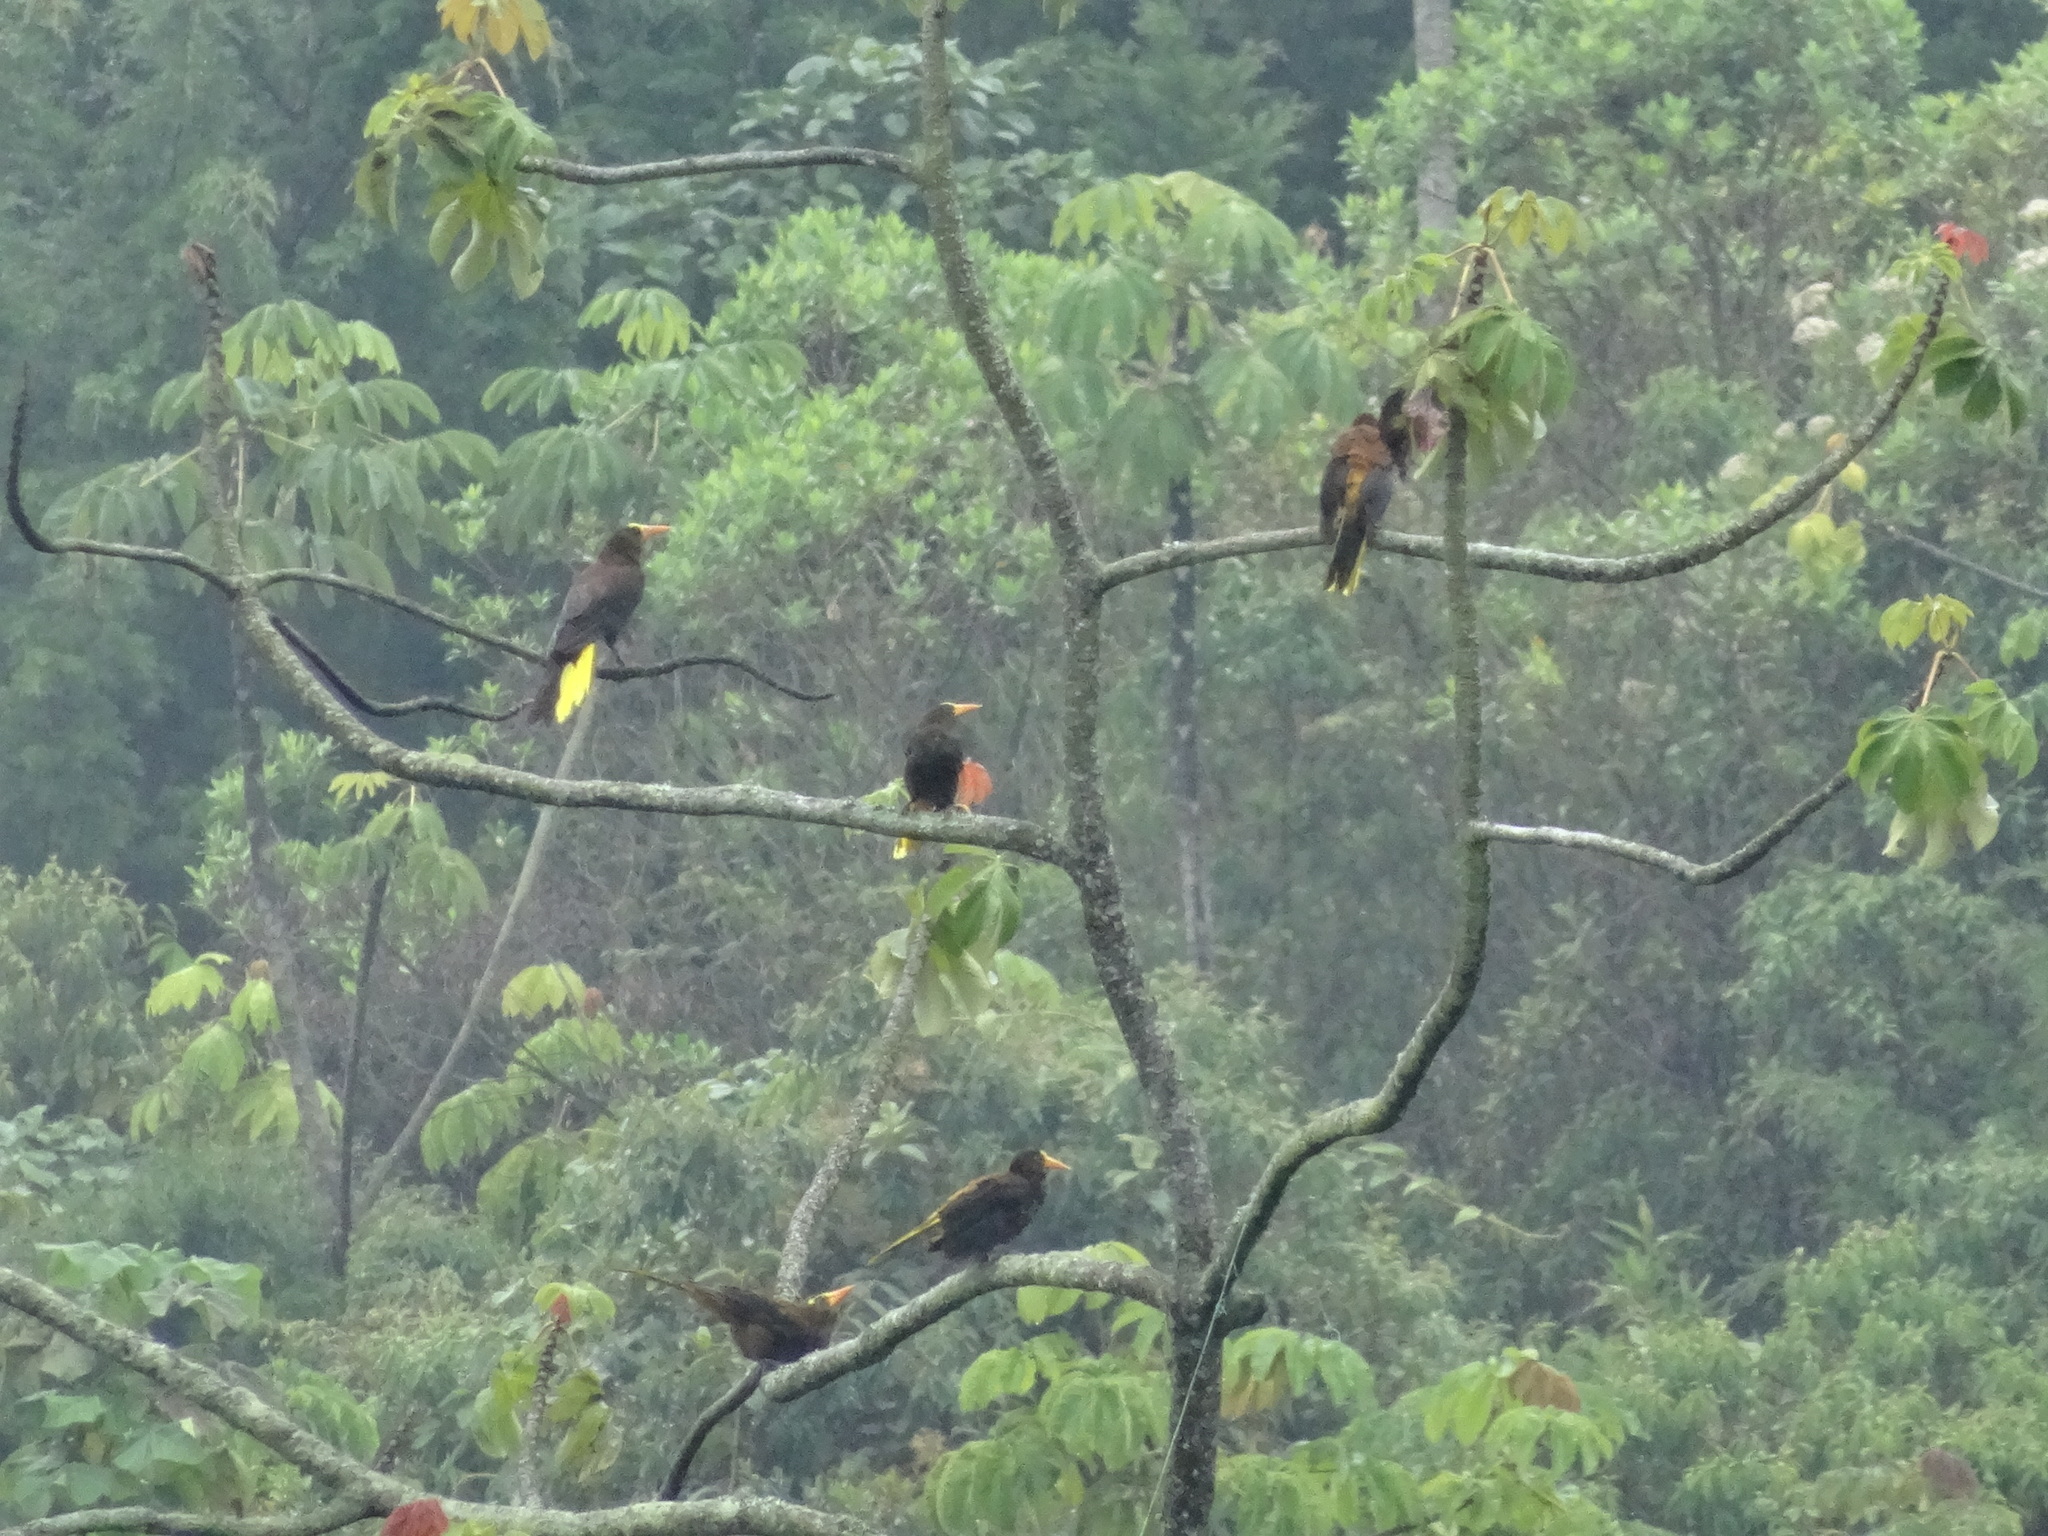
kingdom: Animalia
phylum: Chordata
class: Aves
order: Passeriformes
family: Icteridae
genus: Psarocolius
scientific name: Psarocolius angustifrons
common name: Russet-backed oropendola
